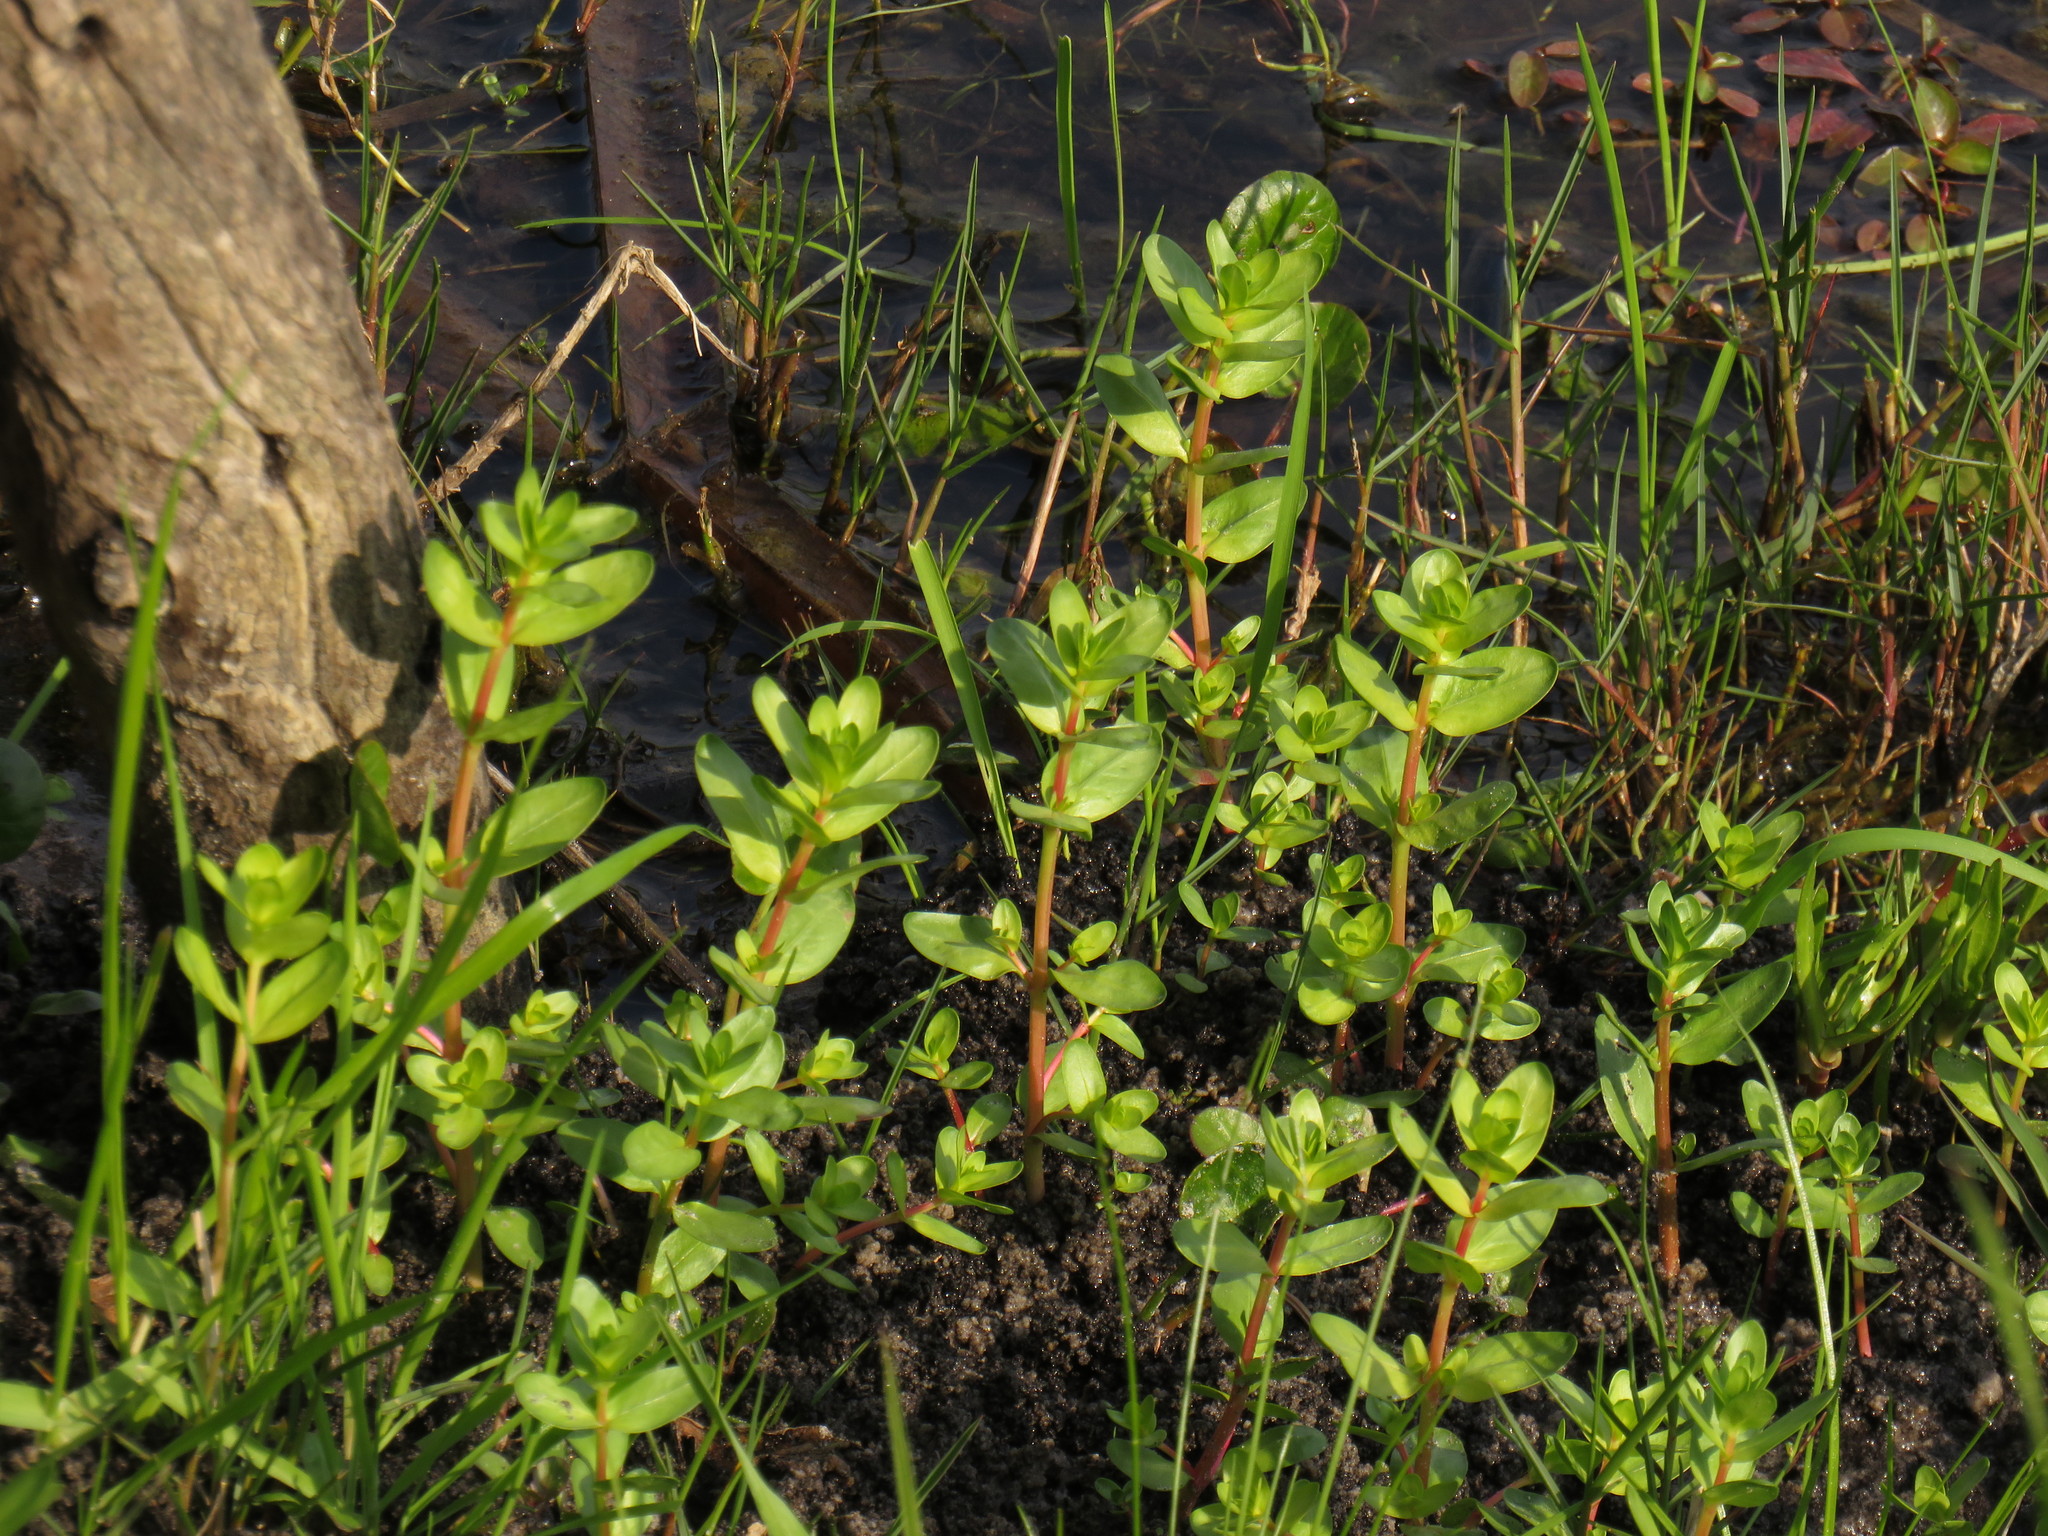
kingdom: Plantae
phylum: Tracheophyta
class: Magnoliopsida
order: Myrtales
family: Lythraceae
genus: Lythrum
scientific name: Lythrum hyssopifolia
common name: Grass-poly
